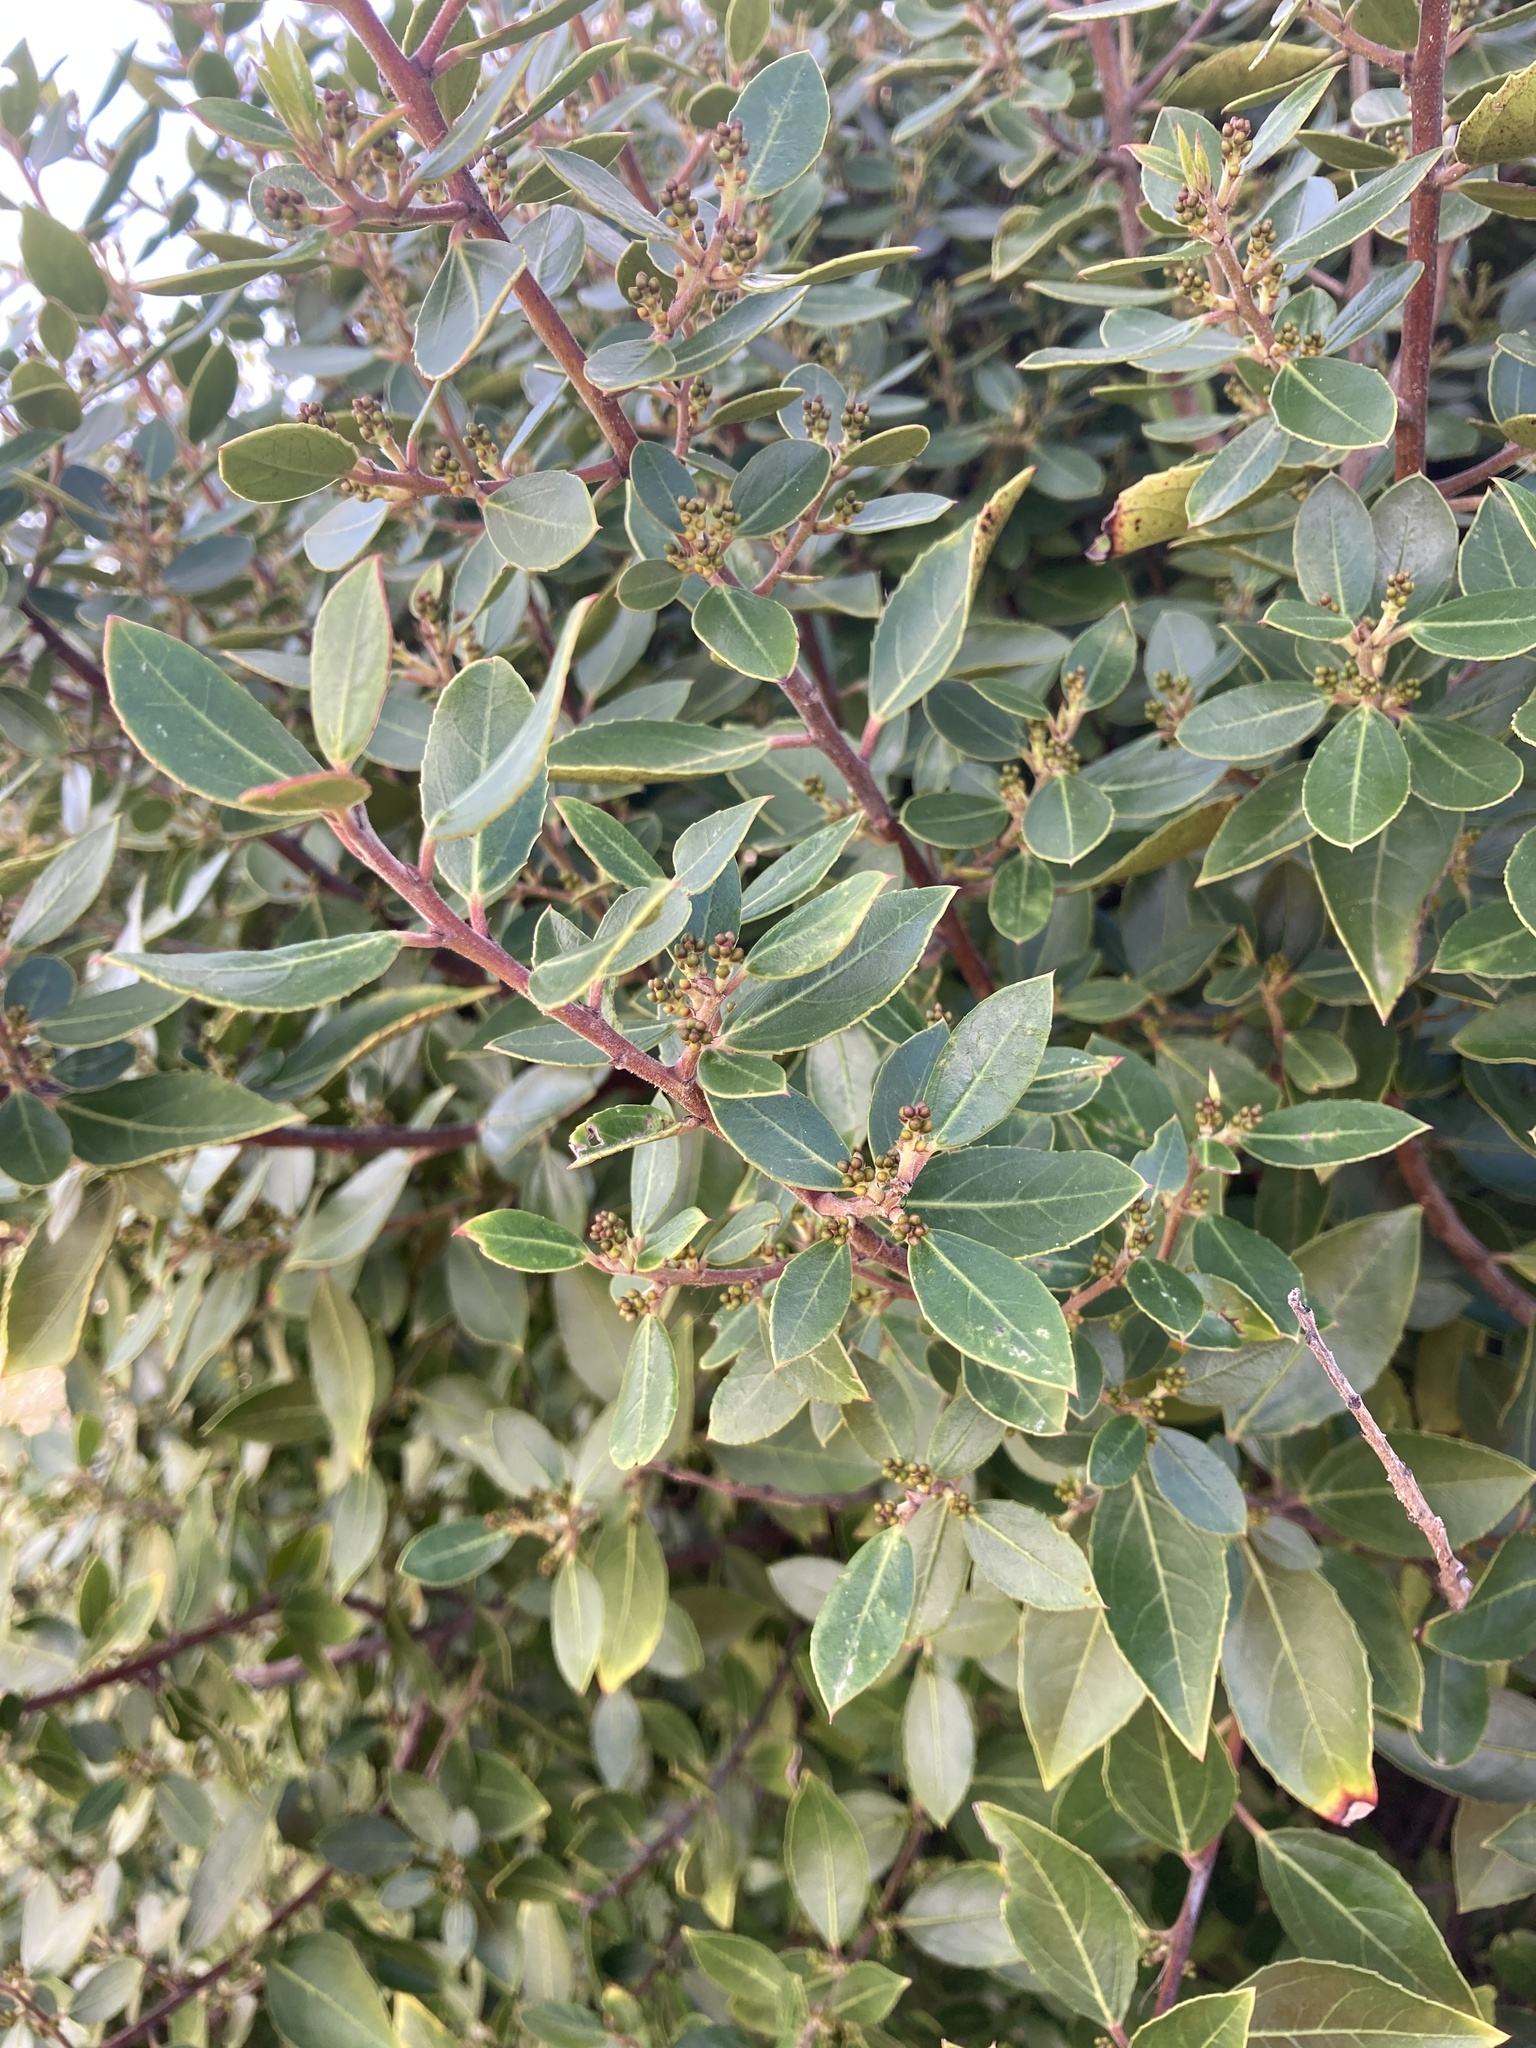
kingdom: Plantae
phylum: Tracheophyta
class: Magnoliopsida
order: Rosales
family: Rhamnaceae
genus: Rhamnus
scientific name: Rhamnus alaternus
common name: Mediterranean buckthorn
